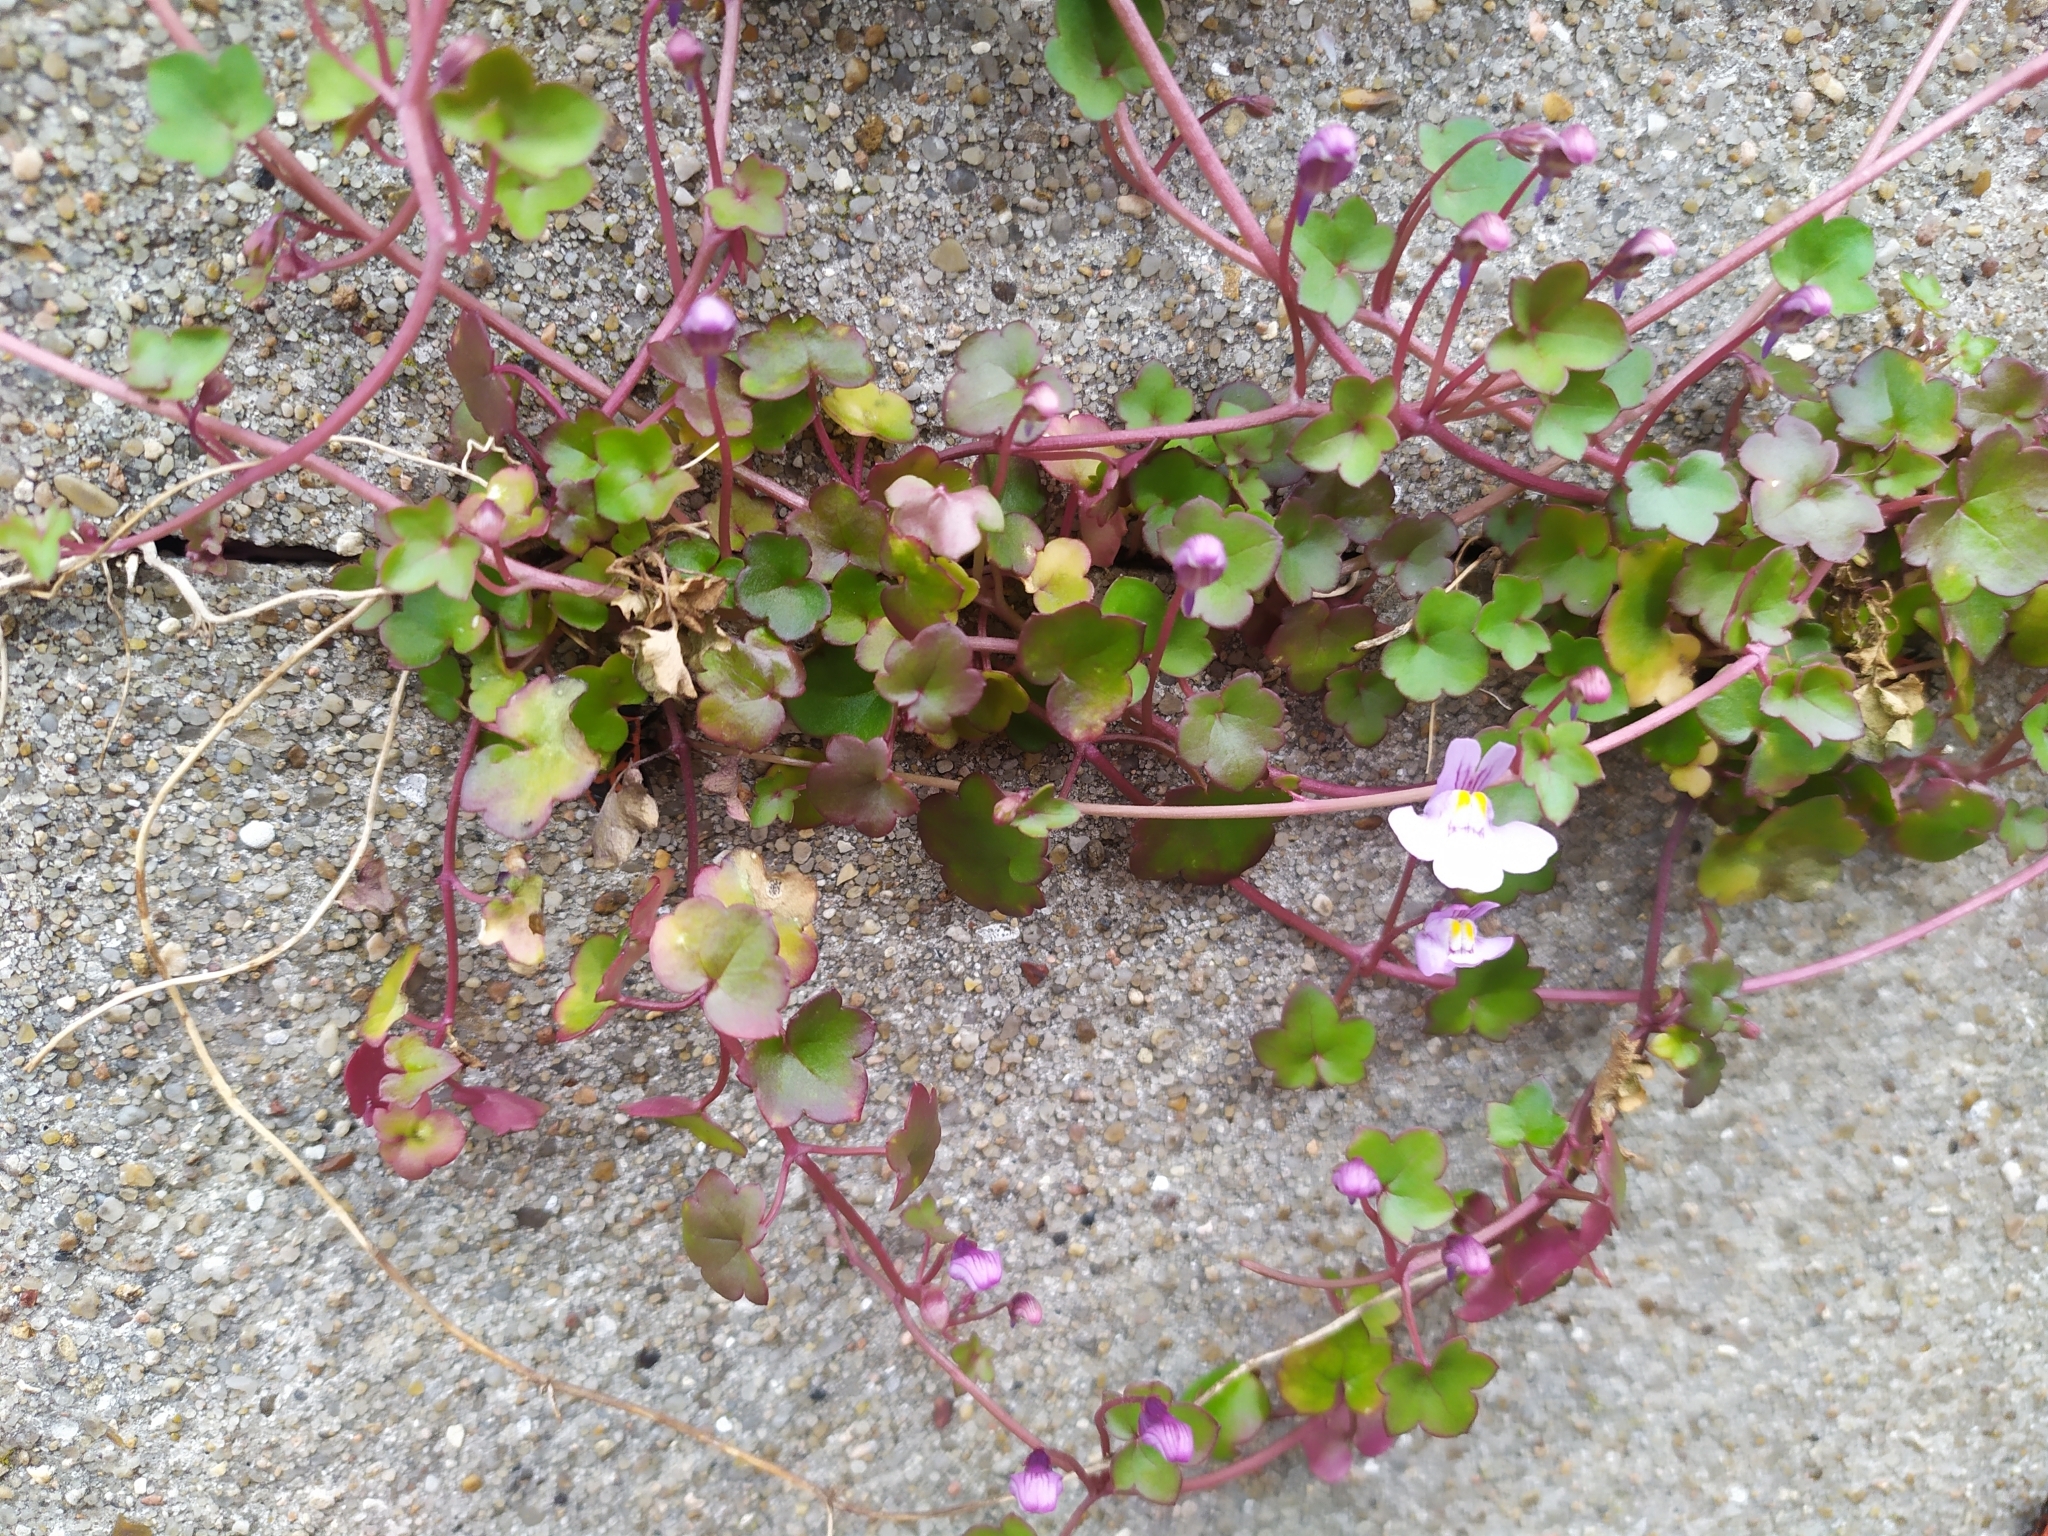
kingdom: Plantae
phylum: Tracheophyta
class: Magnoliopsida
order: Lamiales
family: Plantaginaceae
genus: Cymbalaria
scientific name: Cymbalaria muralis
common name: Ivy-leaved toadflax
